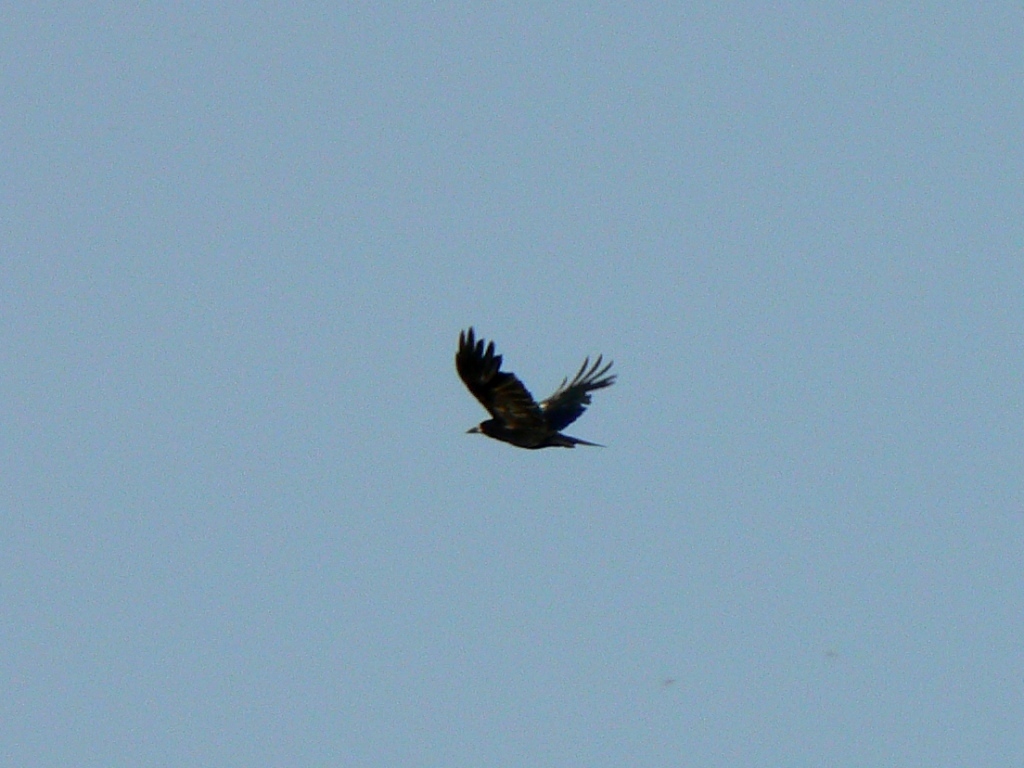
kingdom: Animalia
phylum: Chordata
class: Aves
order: Passeriformes
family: Corvidae
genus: Corvus
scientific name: Corvus frugilegus
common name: Rook
